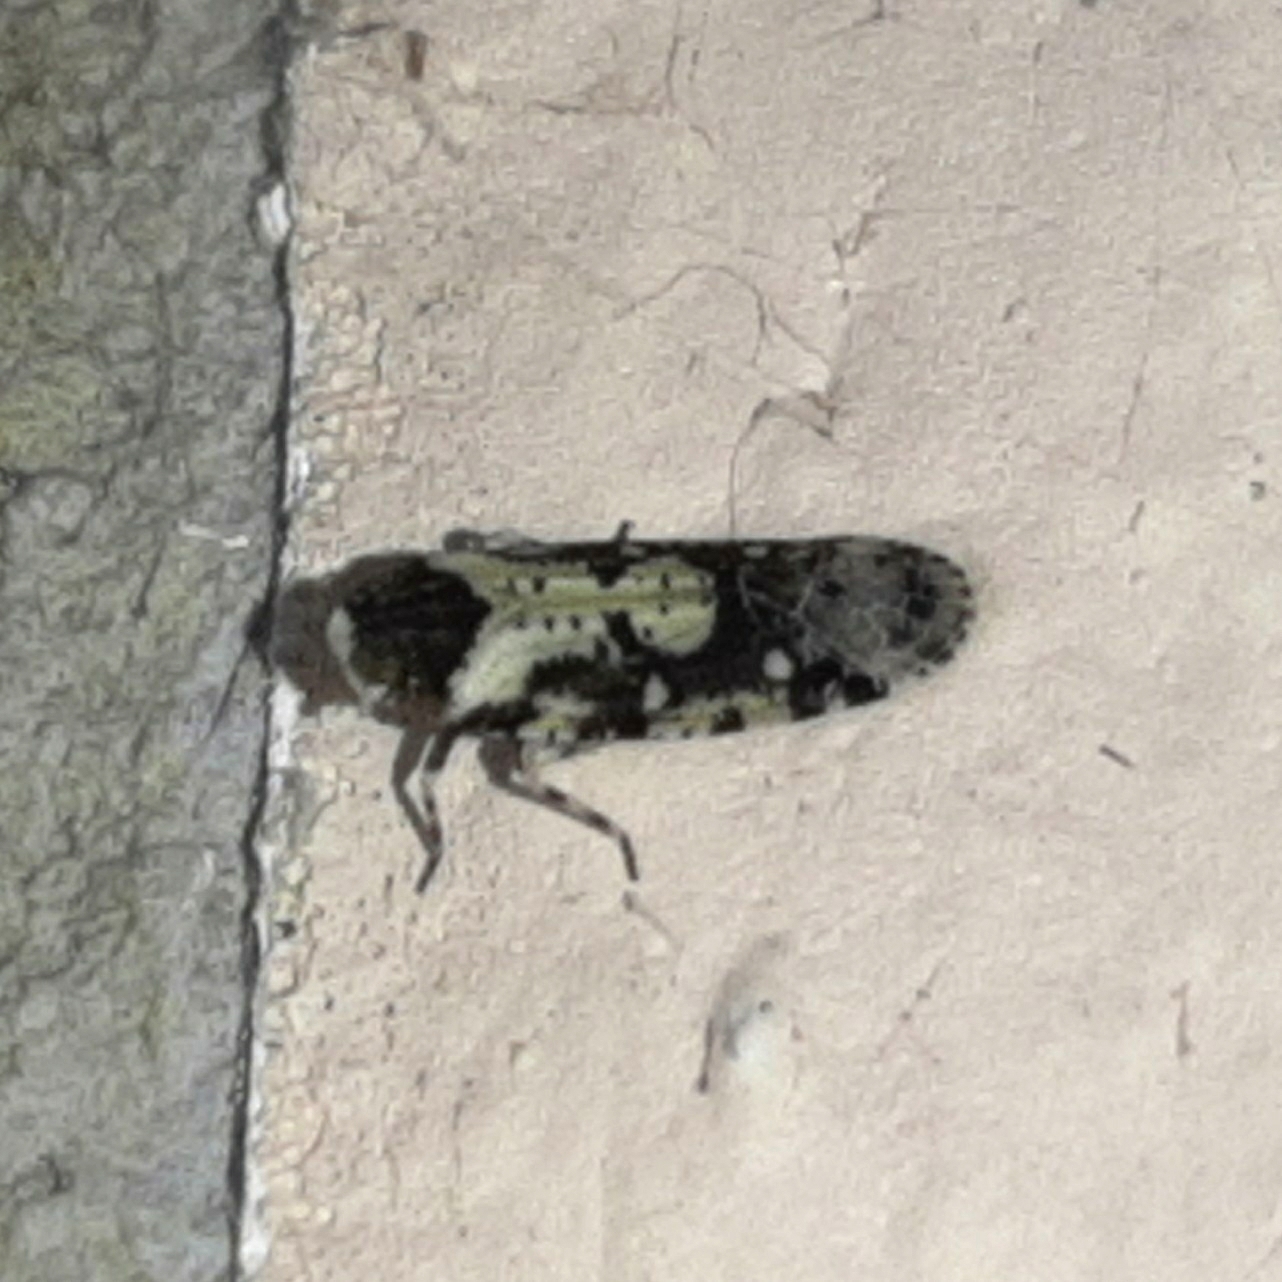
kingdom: Animalia
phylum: Arthropoda
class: Insecta
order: Hemiptera
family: Achilidae
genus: Catonia
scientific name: Catonia albidovariegata
